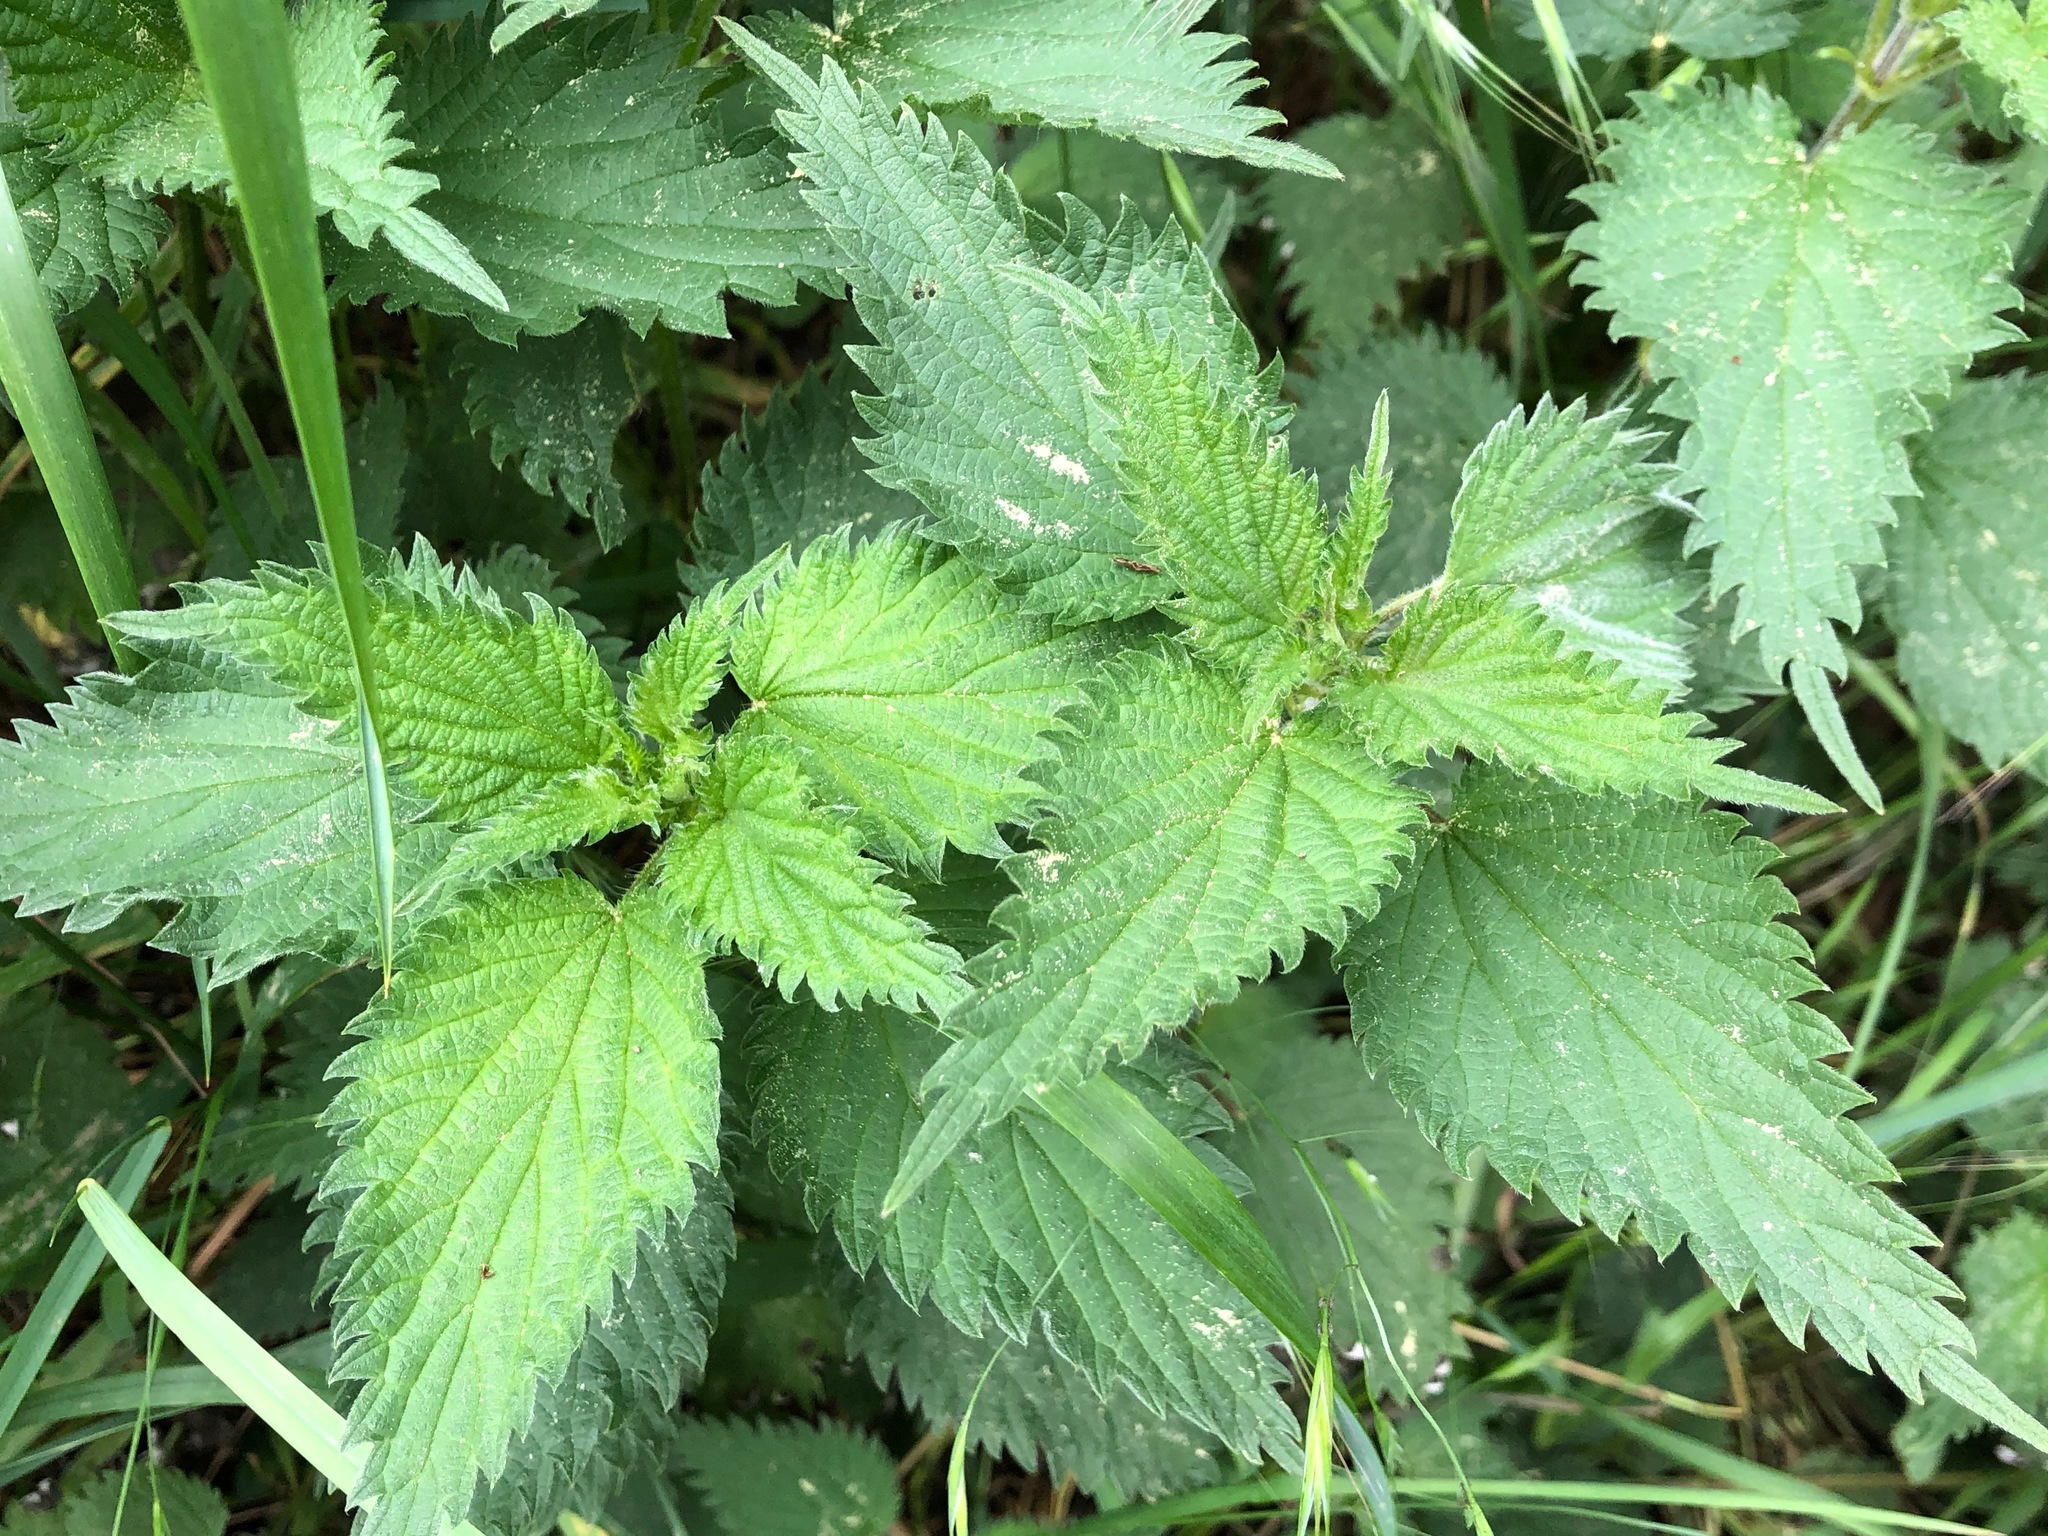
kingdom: Plantae
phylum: Tracheophyta
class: Magnoliopsida
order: Rosales
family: Urticaceae
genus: Urtica
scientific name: Urtica dioica
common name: Common nettle
